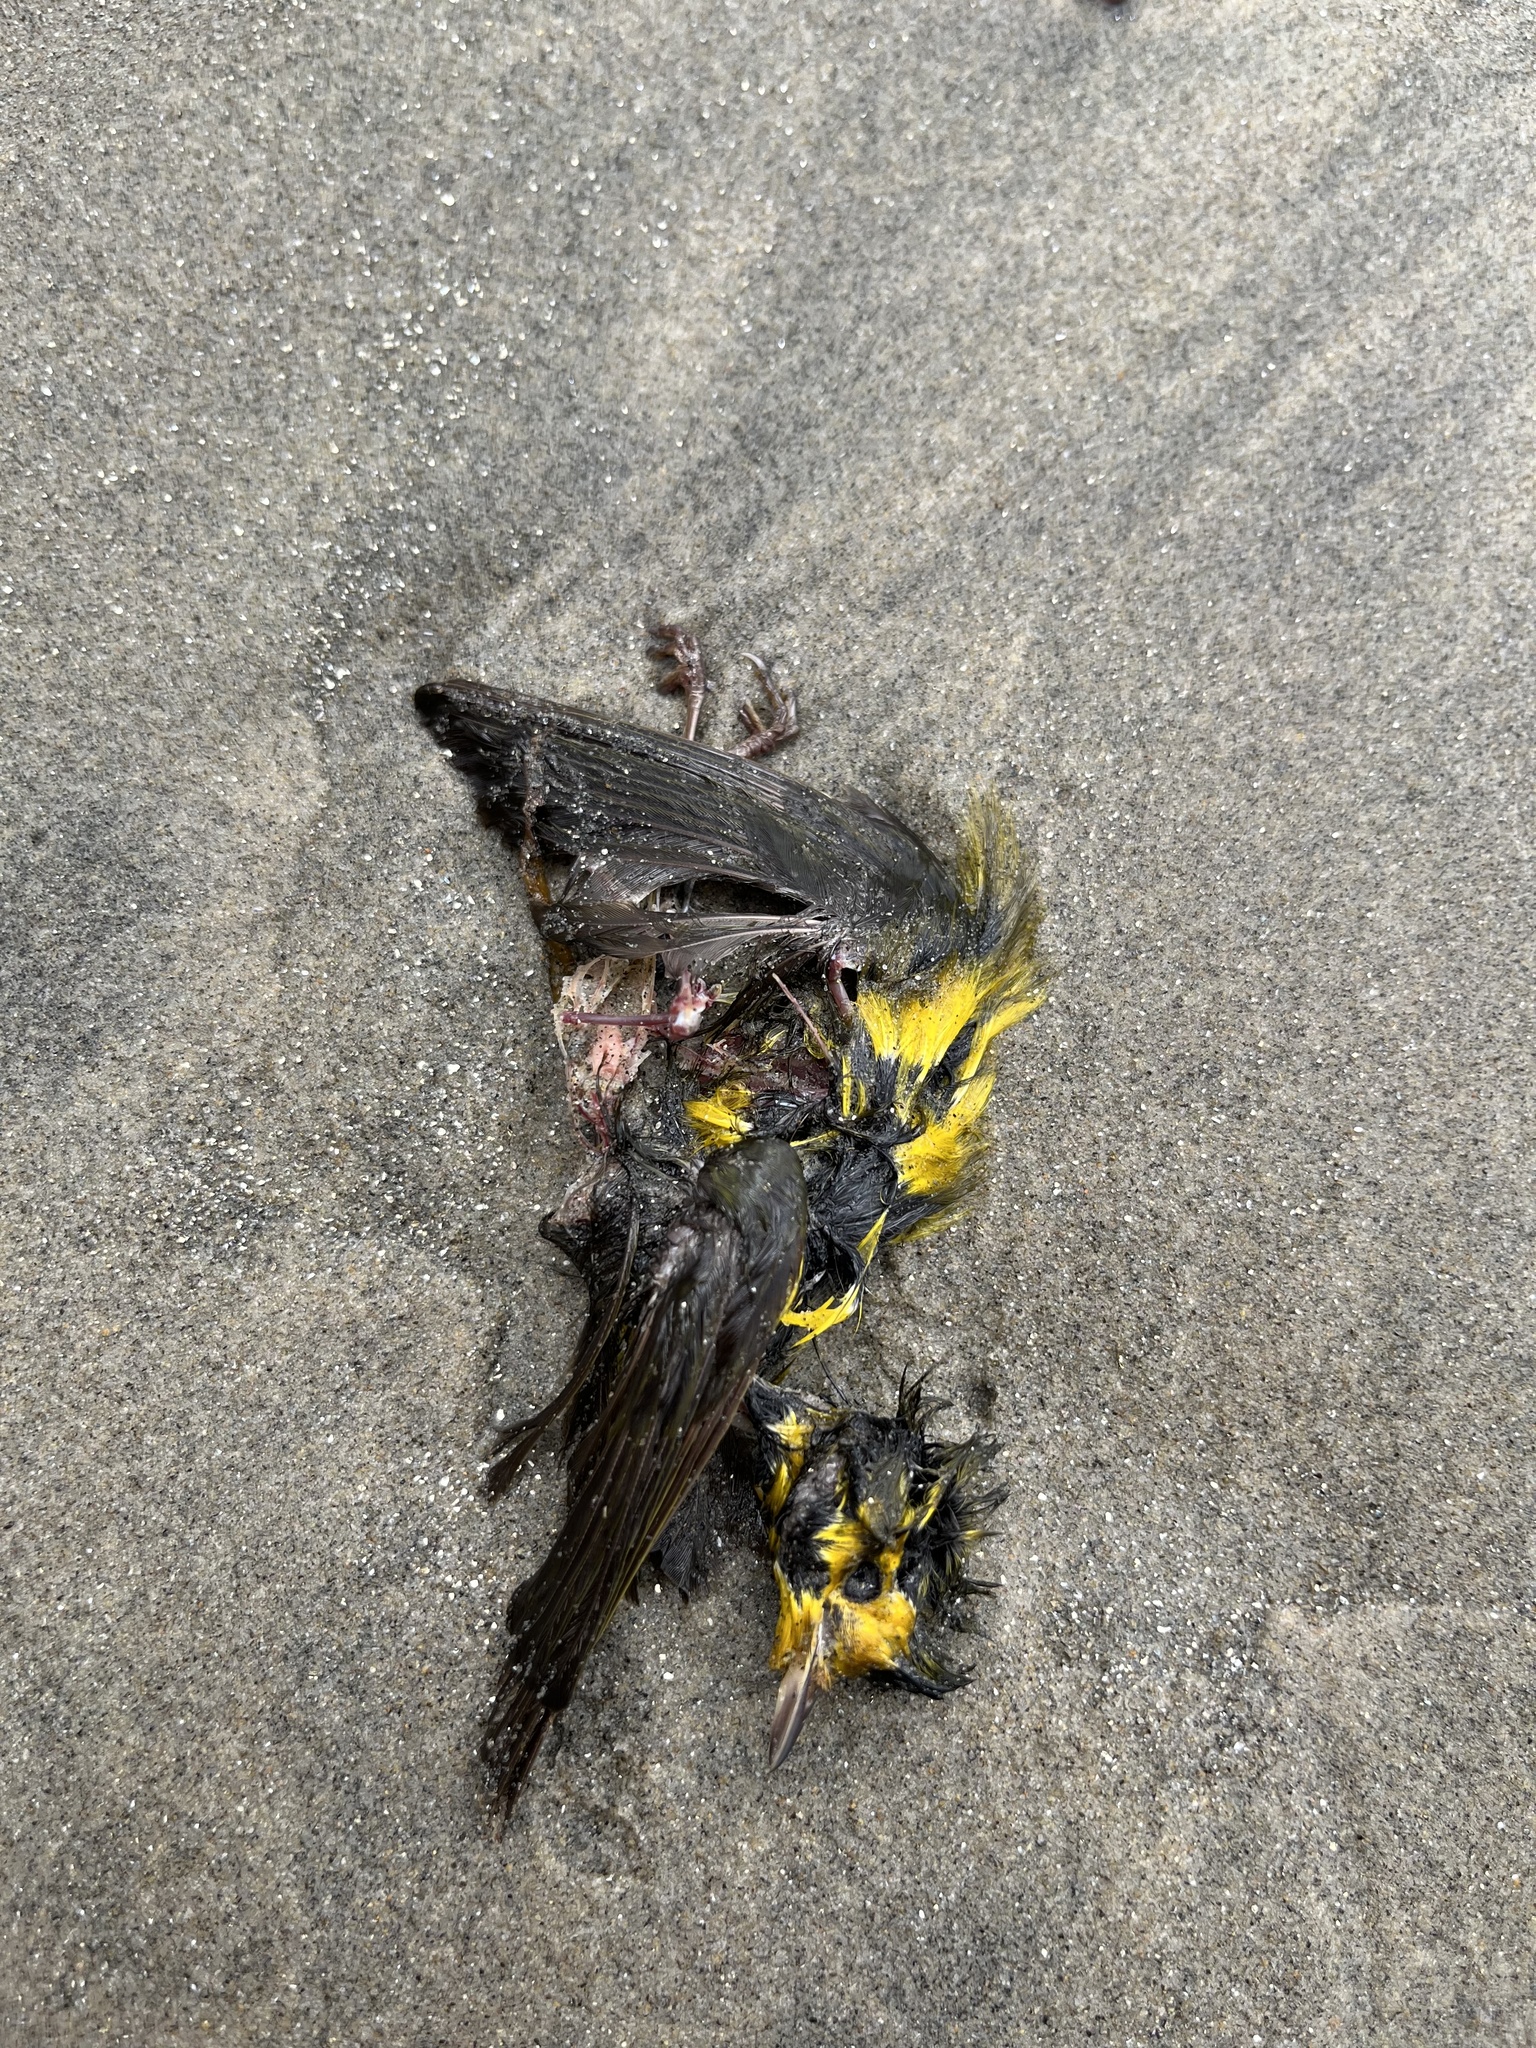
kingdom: Animalia
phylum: Chordata
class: Aves
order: Passeriformes
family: Parulidae
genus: Cardellina
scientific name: Cardellina pusilla
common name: Wilson's warbler
